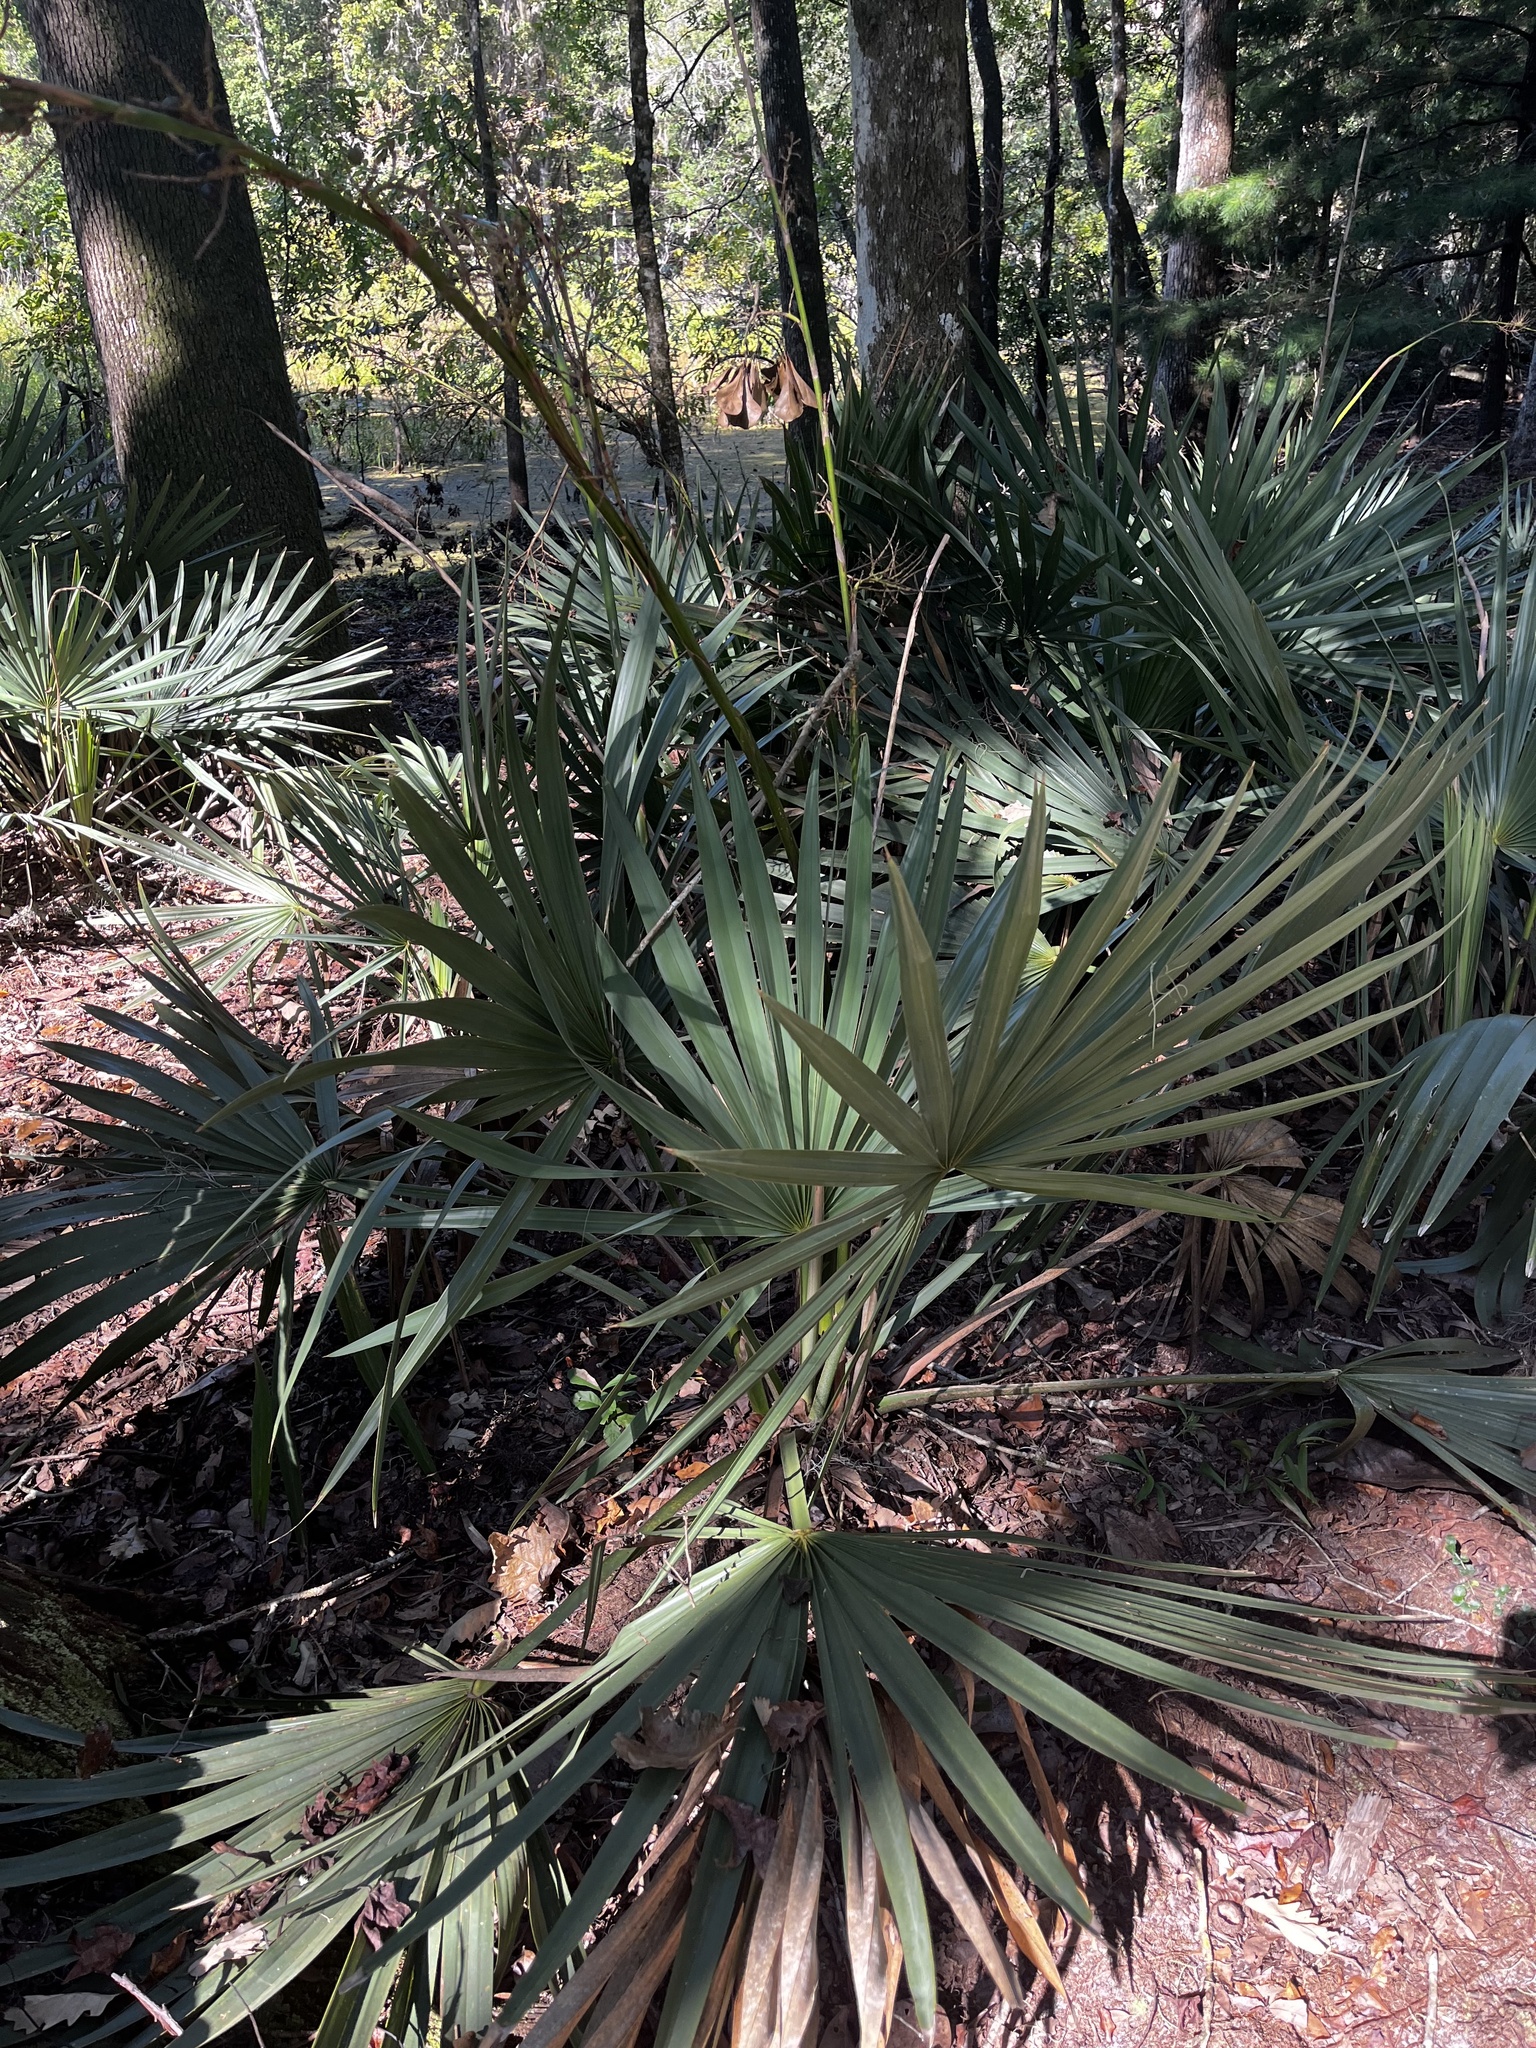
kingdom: Plantae
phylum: Tracheophyta
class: Liliopsida
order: Arecales
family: Arecaceae
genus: Sabal
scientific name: Sabal minor
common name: Dwarf palmetto
